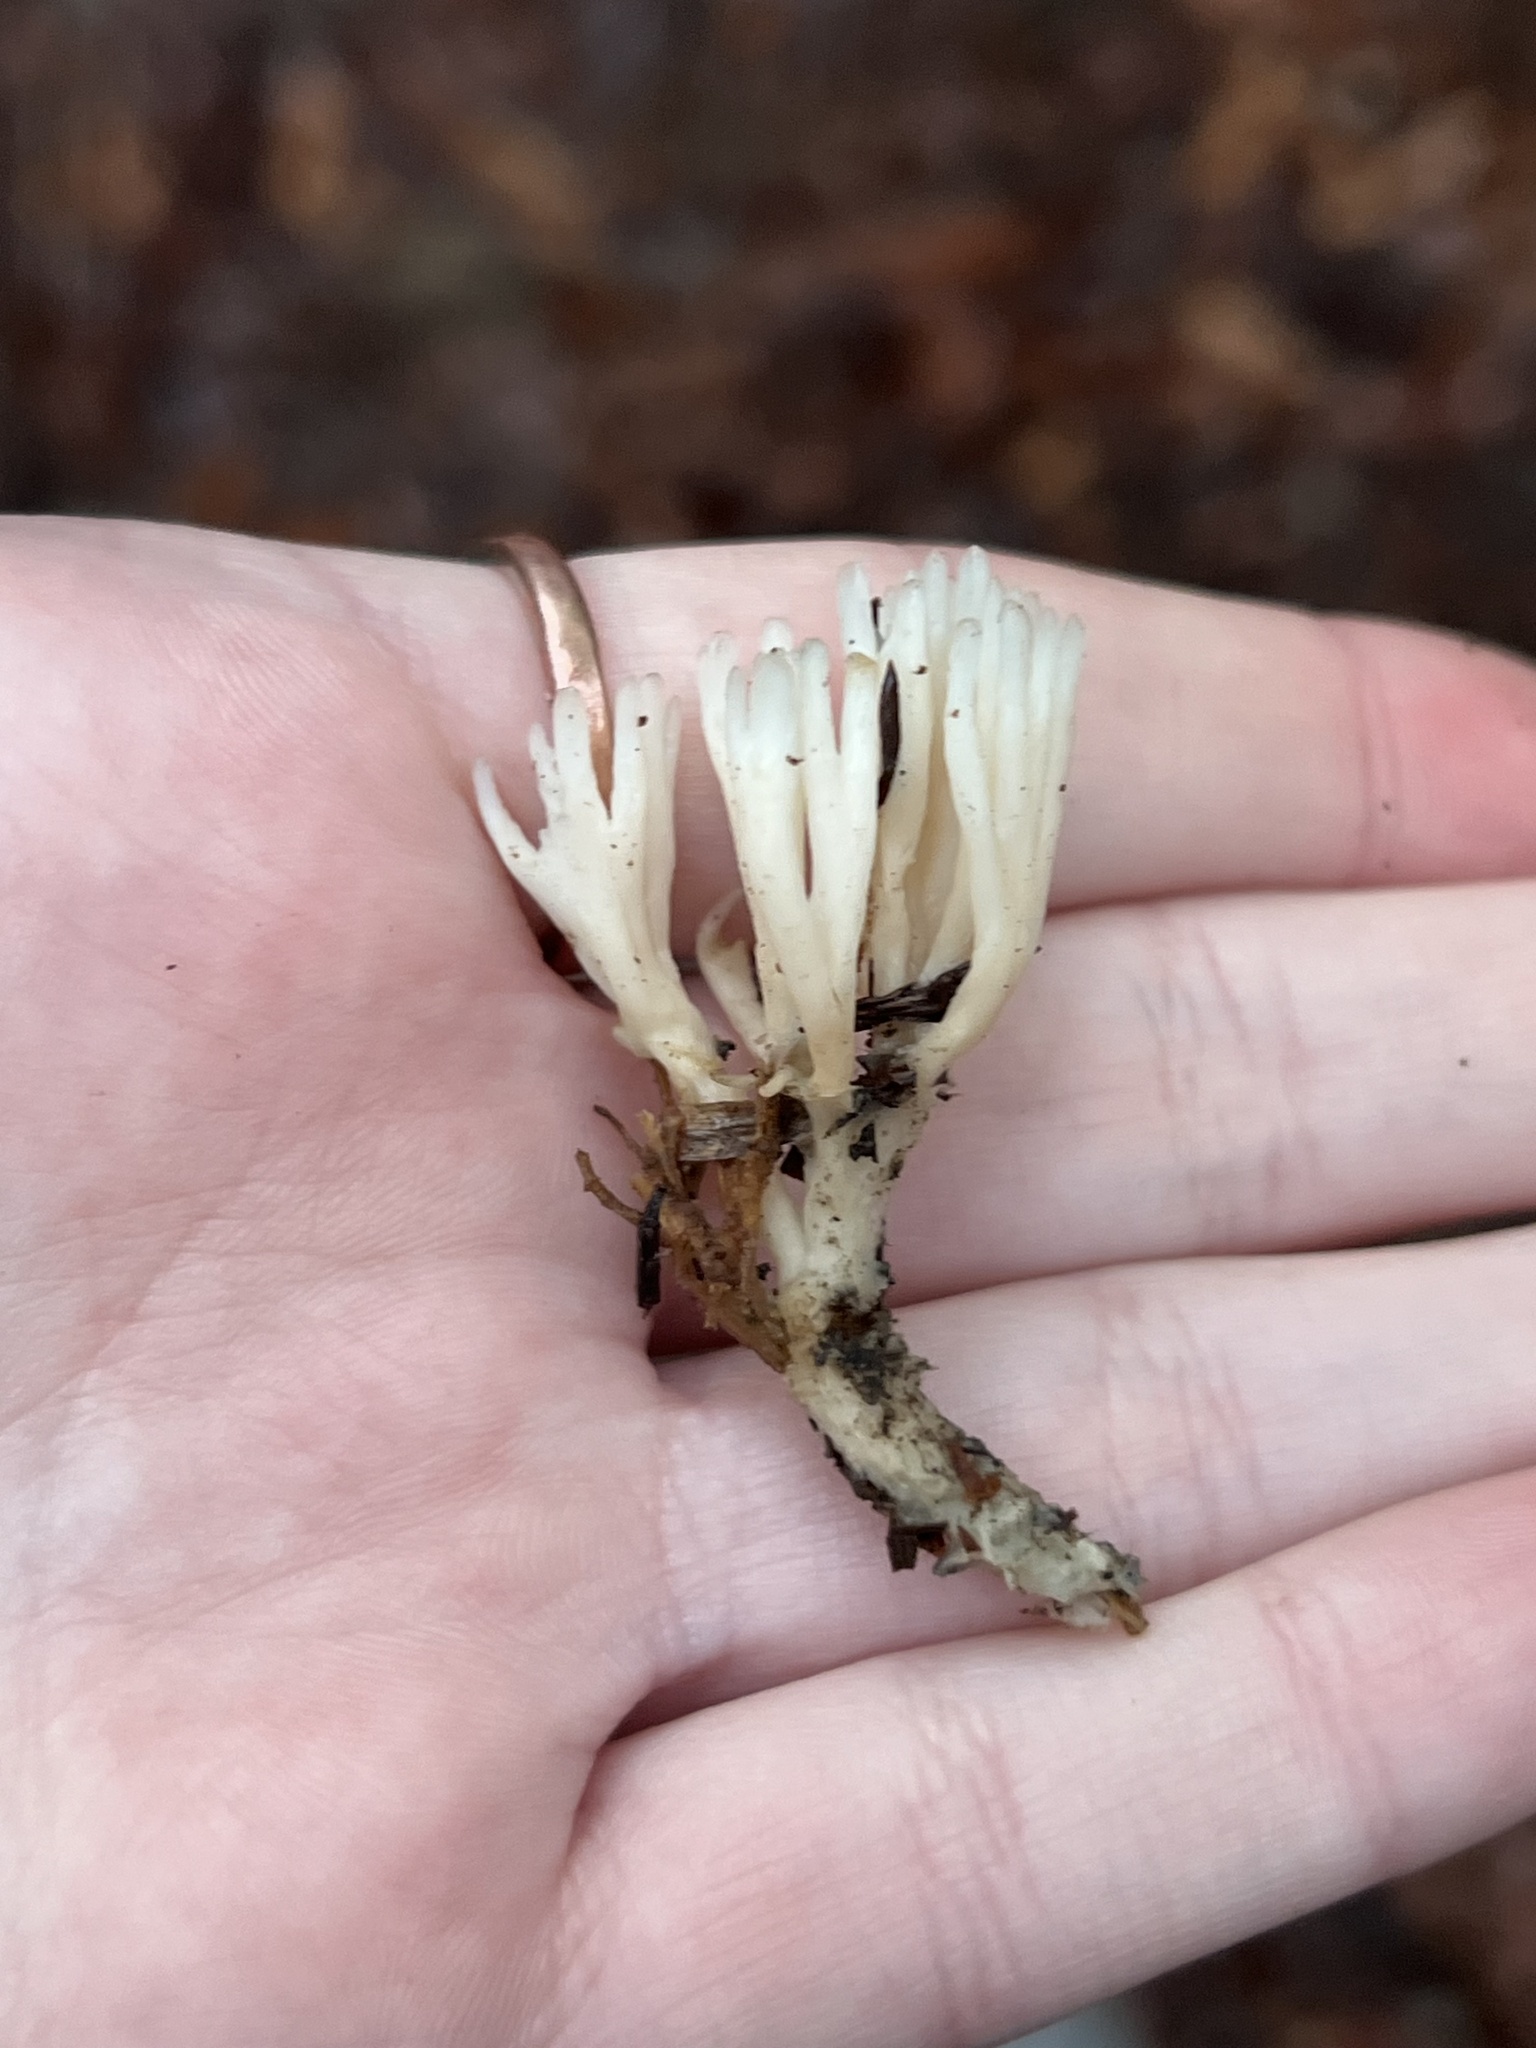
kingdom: Fungi
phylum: Basidiomycota
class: Agaricomycetes
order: Tremellodendropsidales
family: Tremellodendropsidaceae
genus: Tremellodendropsis
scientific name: Tremellodendropsis tuberosa
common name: Ashen coral
